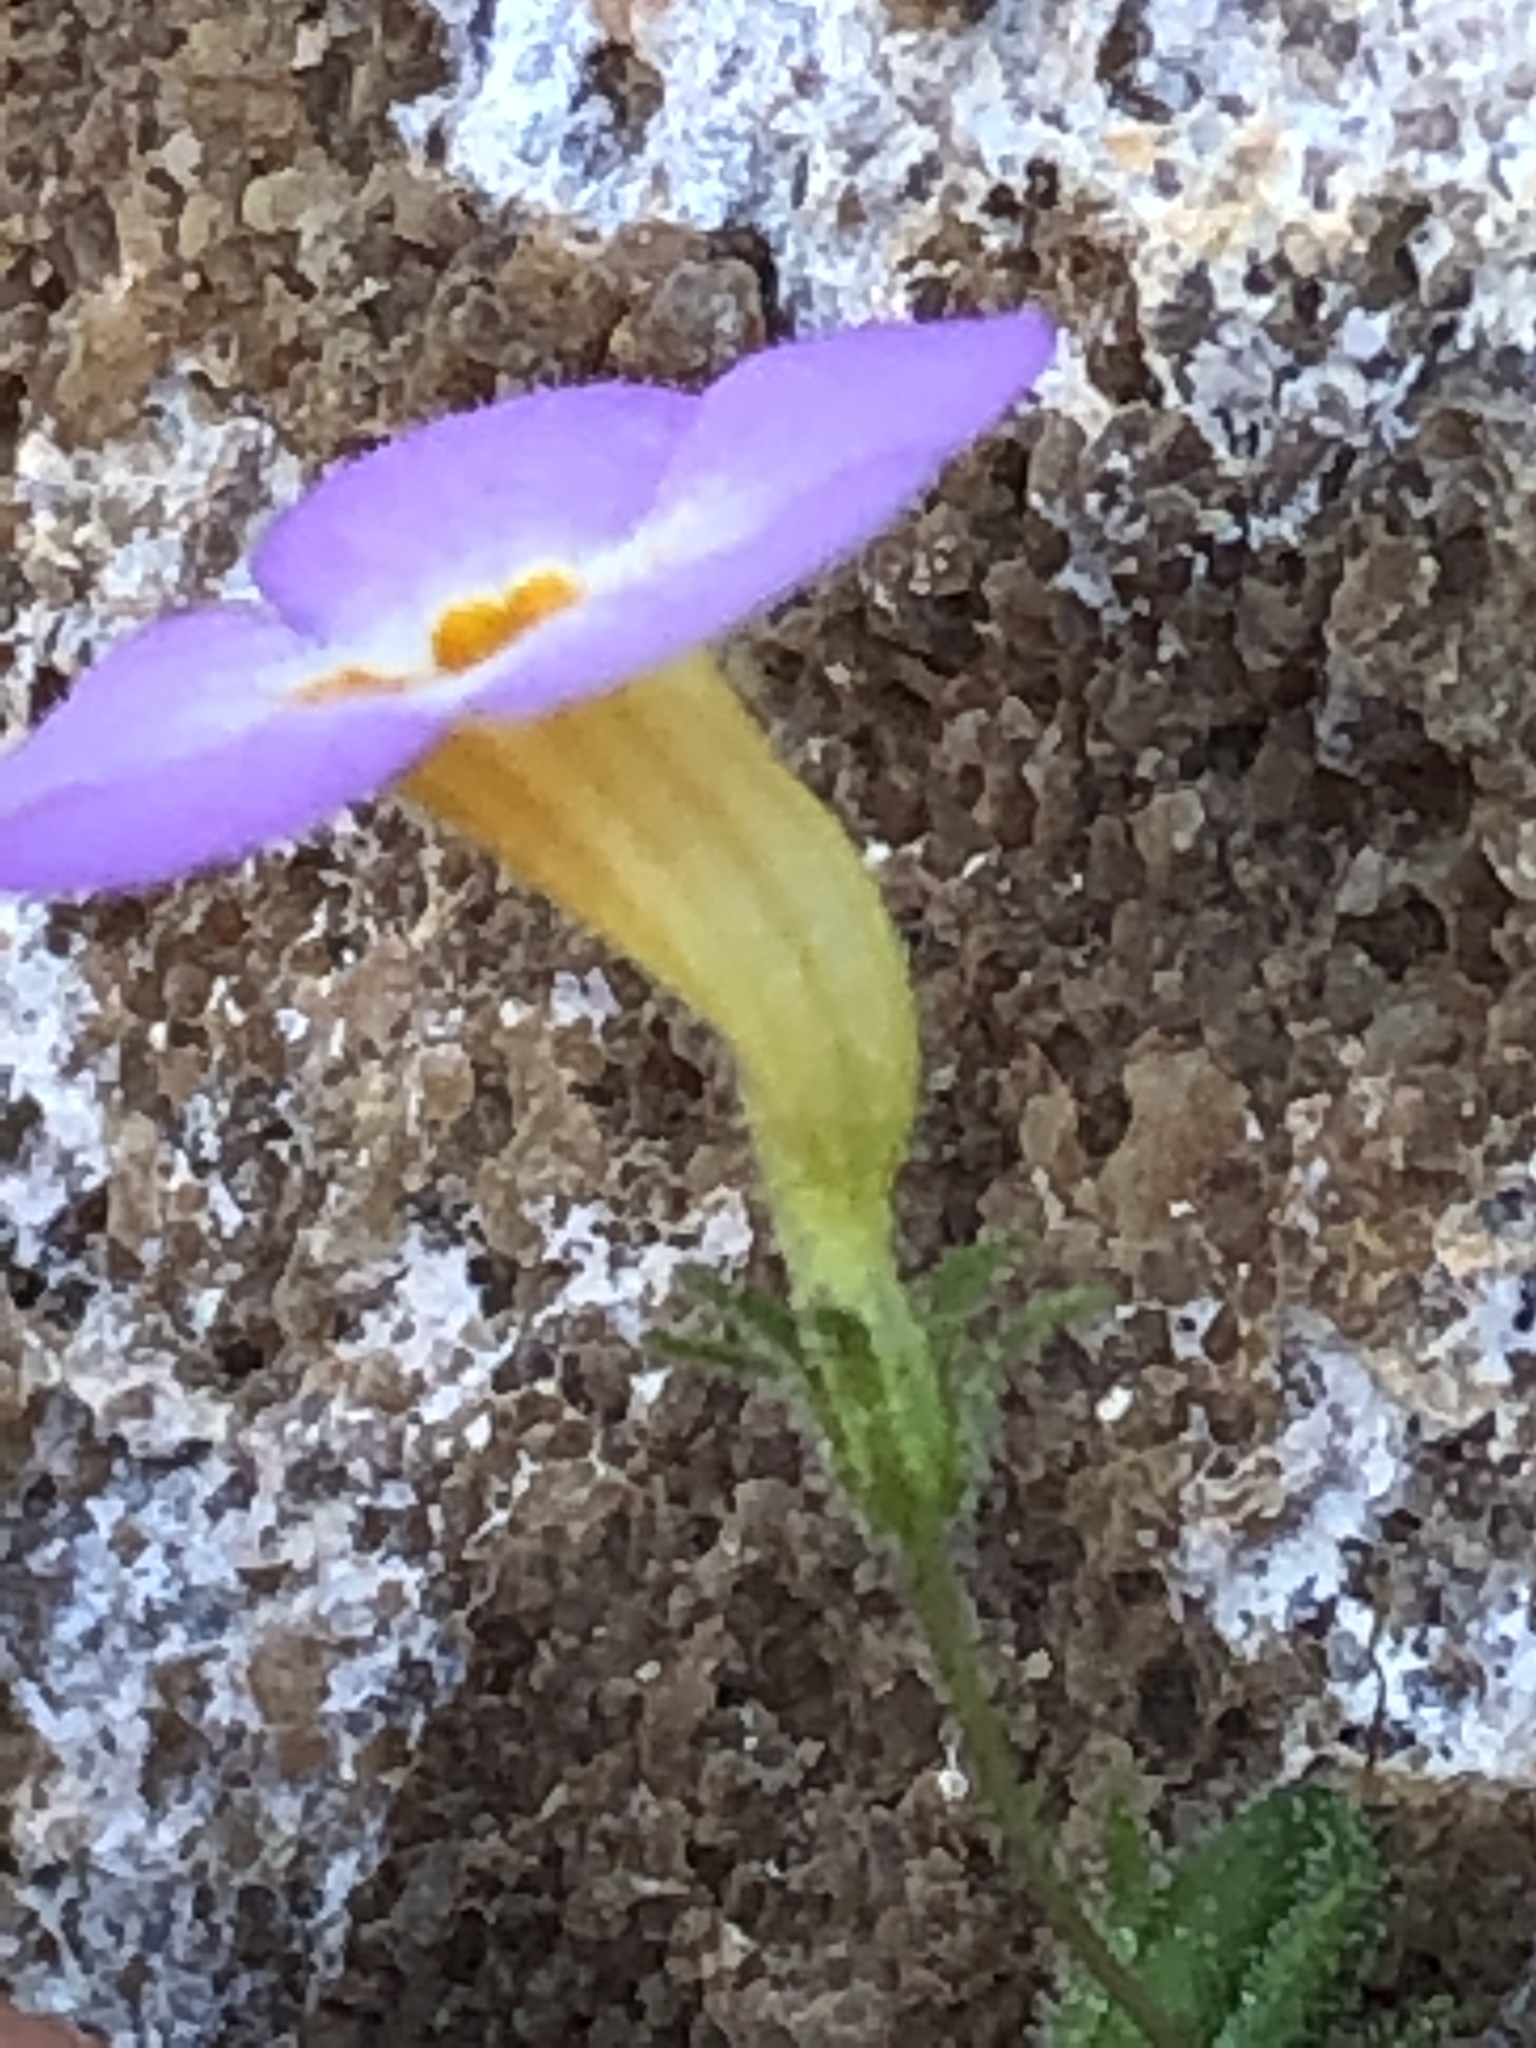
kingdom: Plantae
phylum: Tracheophyta
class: Magnoliopsida
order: Lamiales
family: Scrophulariaceae
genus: Jamesbrittenia
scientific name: Jamesbrittenia tenella
